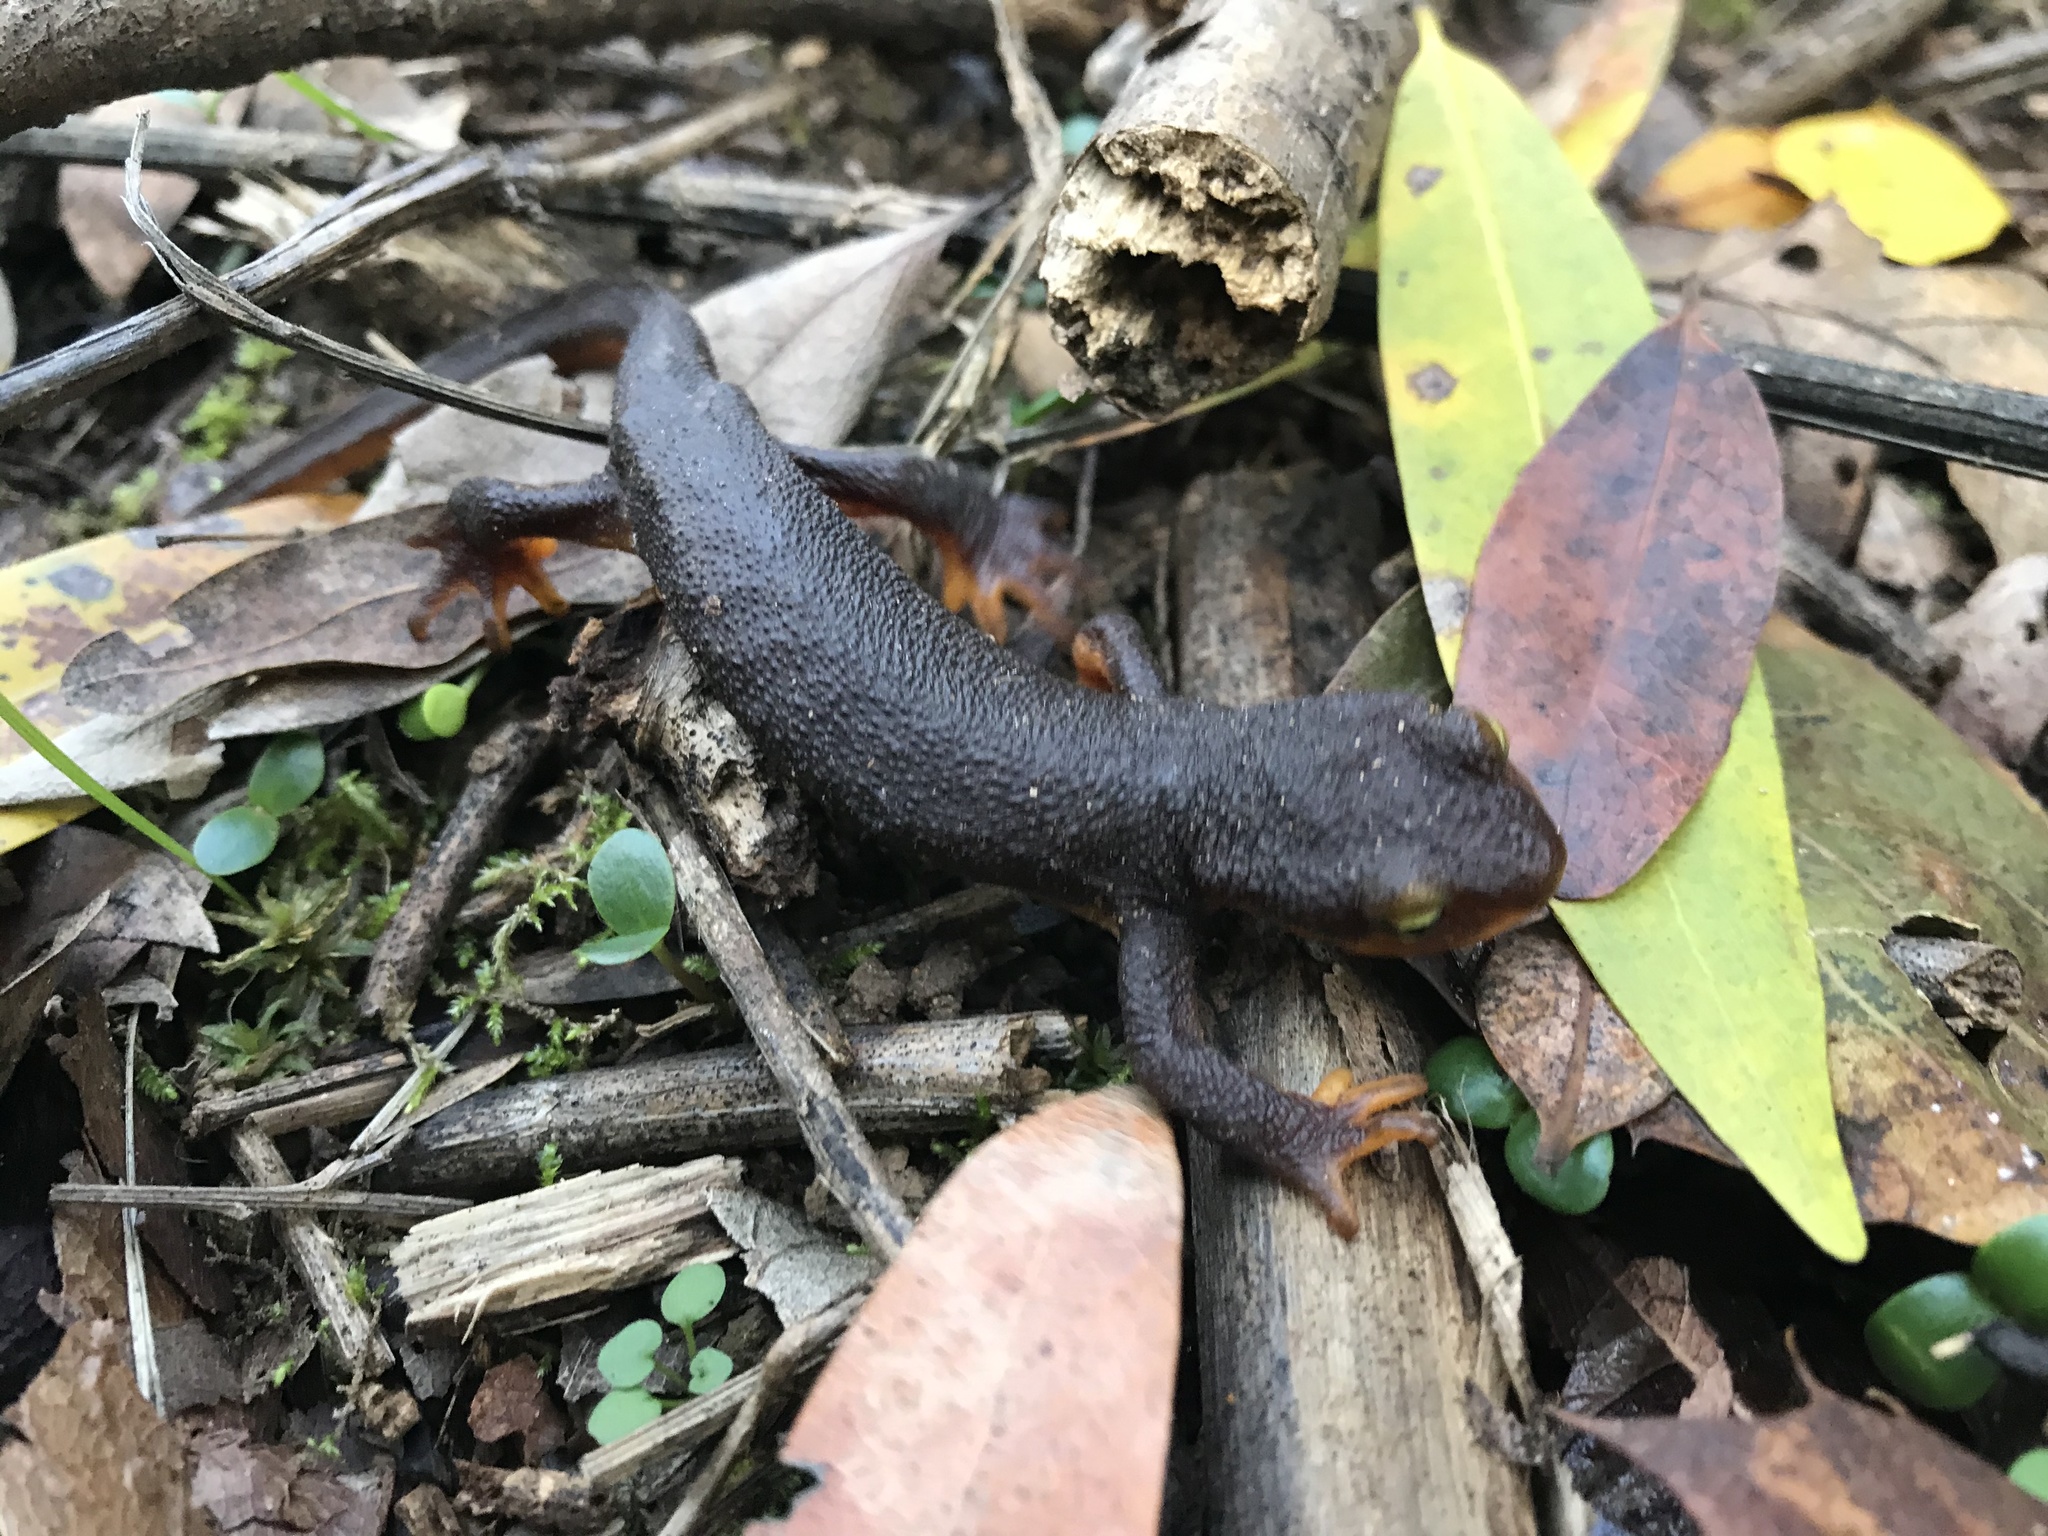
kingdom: Animalia
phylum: Chordata
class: Amphibia
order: Caudata
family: Salamandridae
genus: Taricha
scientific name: Taricha torosa
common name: California newt
